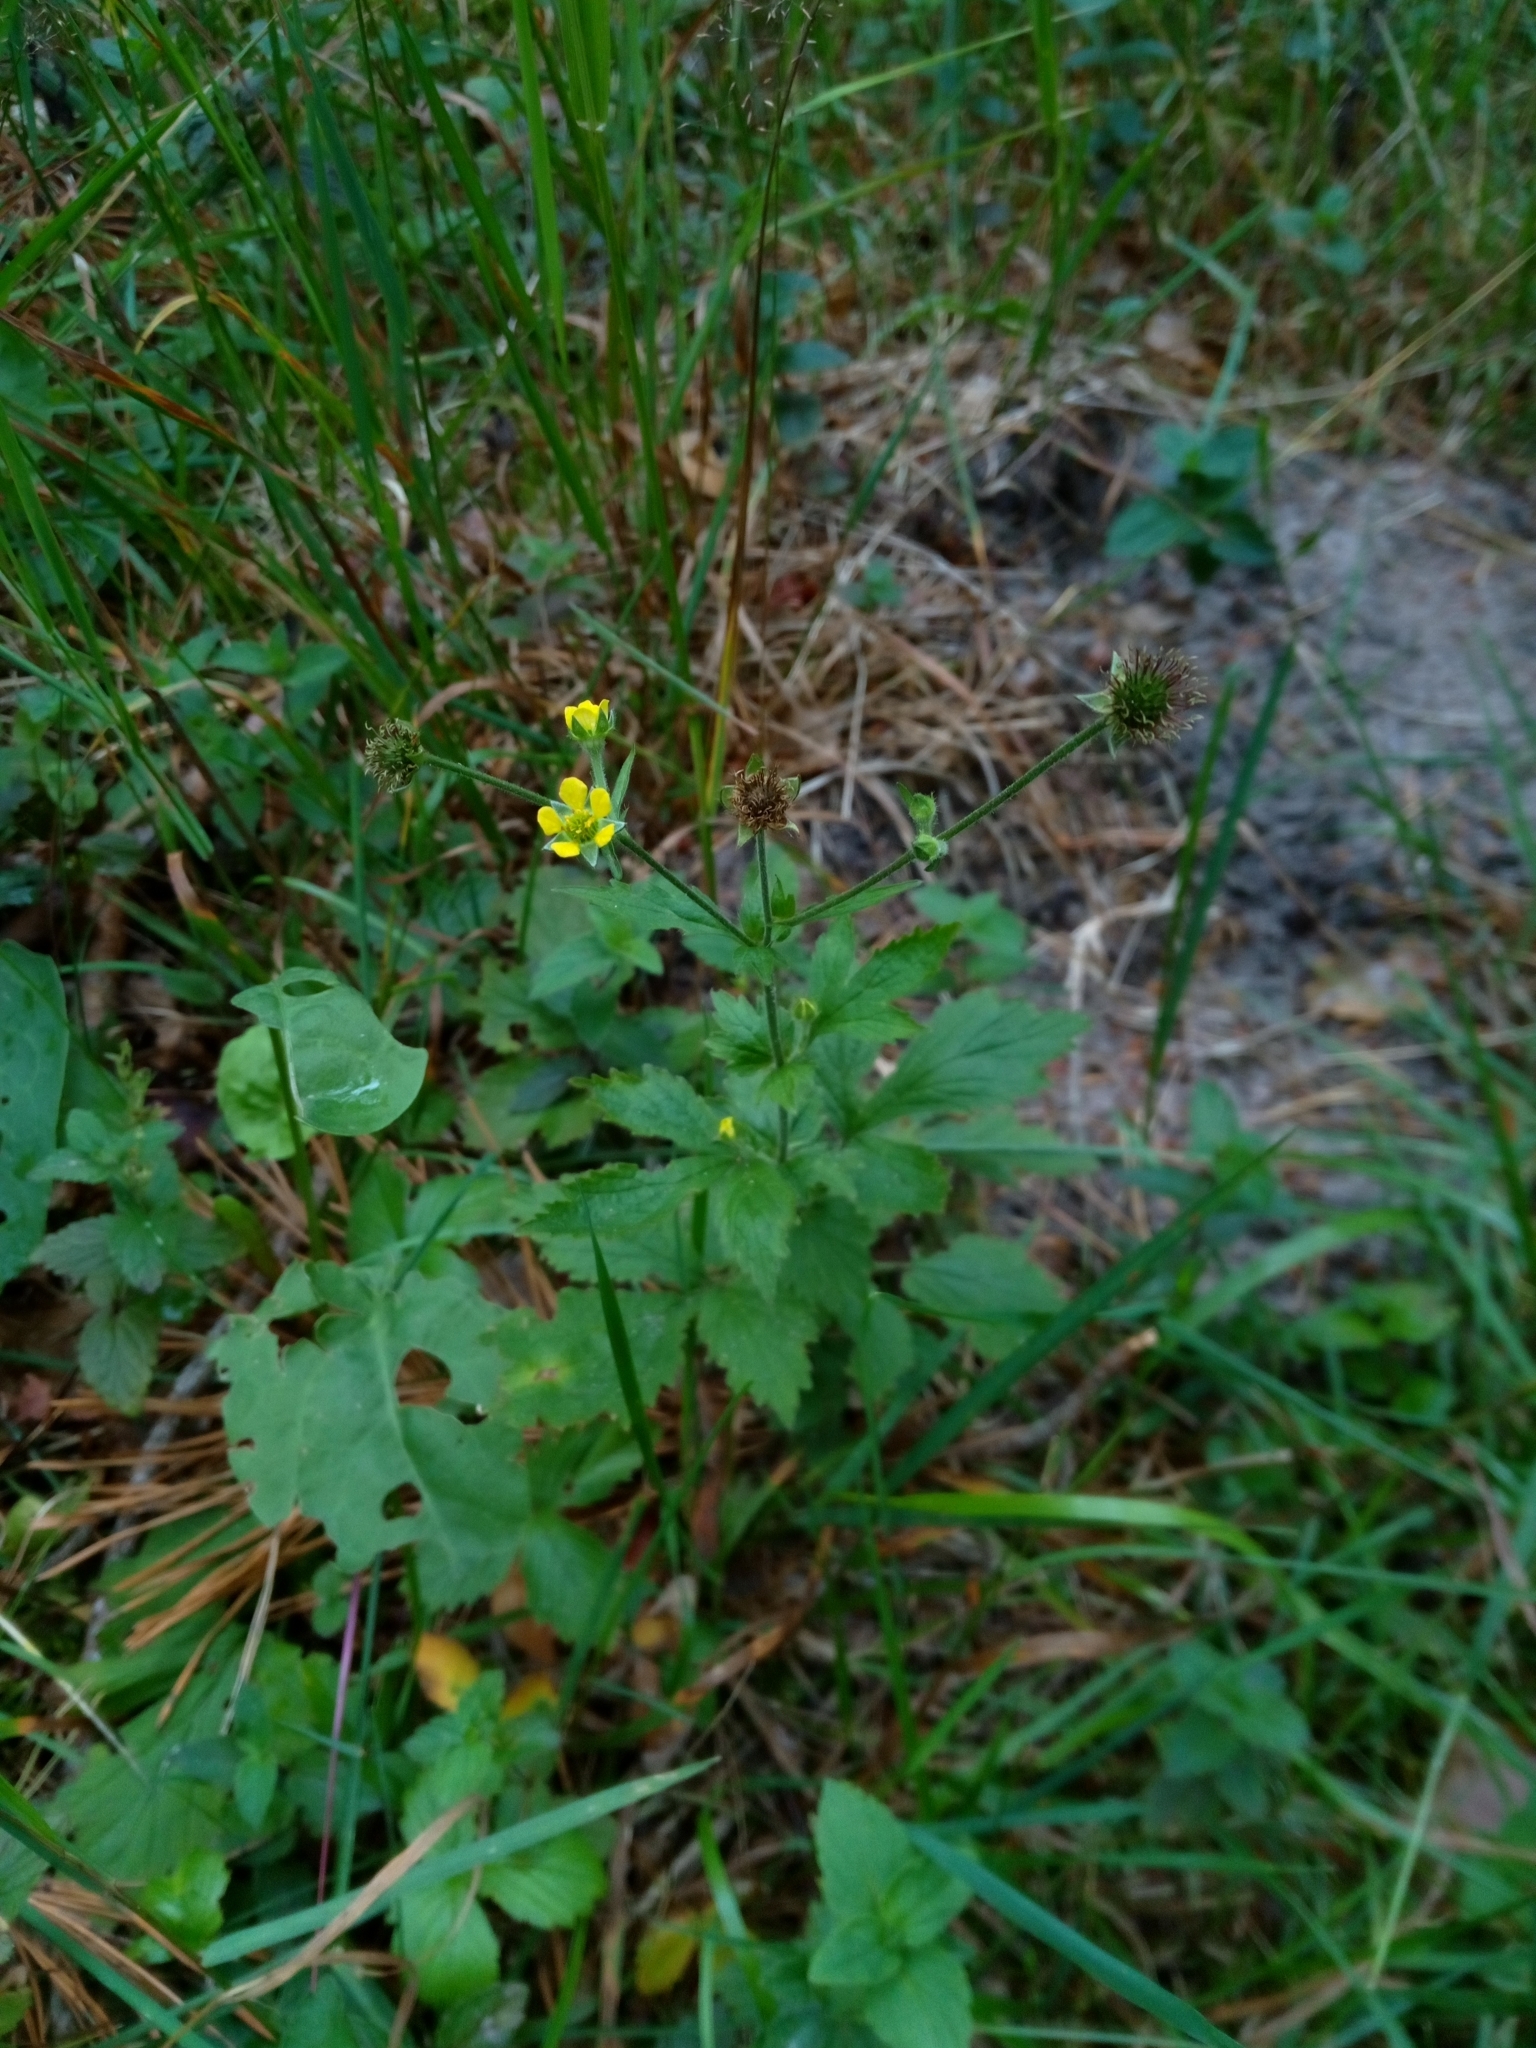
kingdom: Plantae
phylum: Tracheophyta
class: Magnoliopsida
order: Rosales
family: Rosaceae
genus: Geum
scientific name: Geum urbanum
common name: Wood avens
